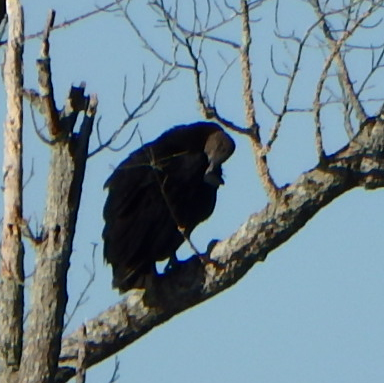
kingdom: Animalia
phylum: Chordata
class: Aves
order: Accipitriformes
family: Cathartidae
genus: Coragyps
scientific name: Coragyps atratus
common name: Black vulture
